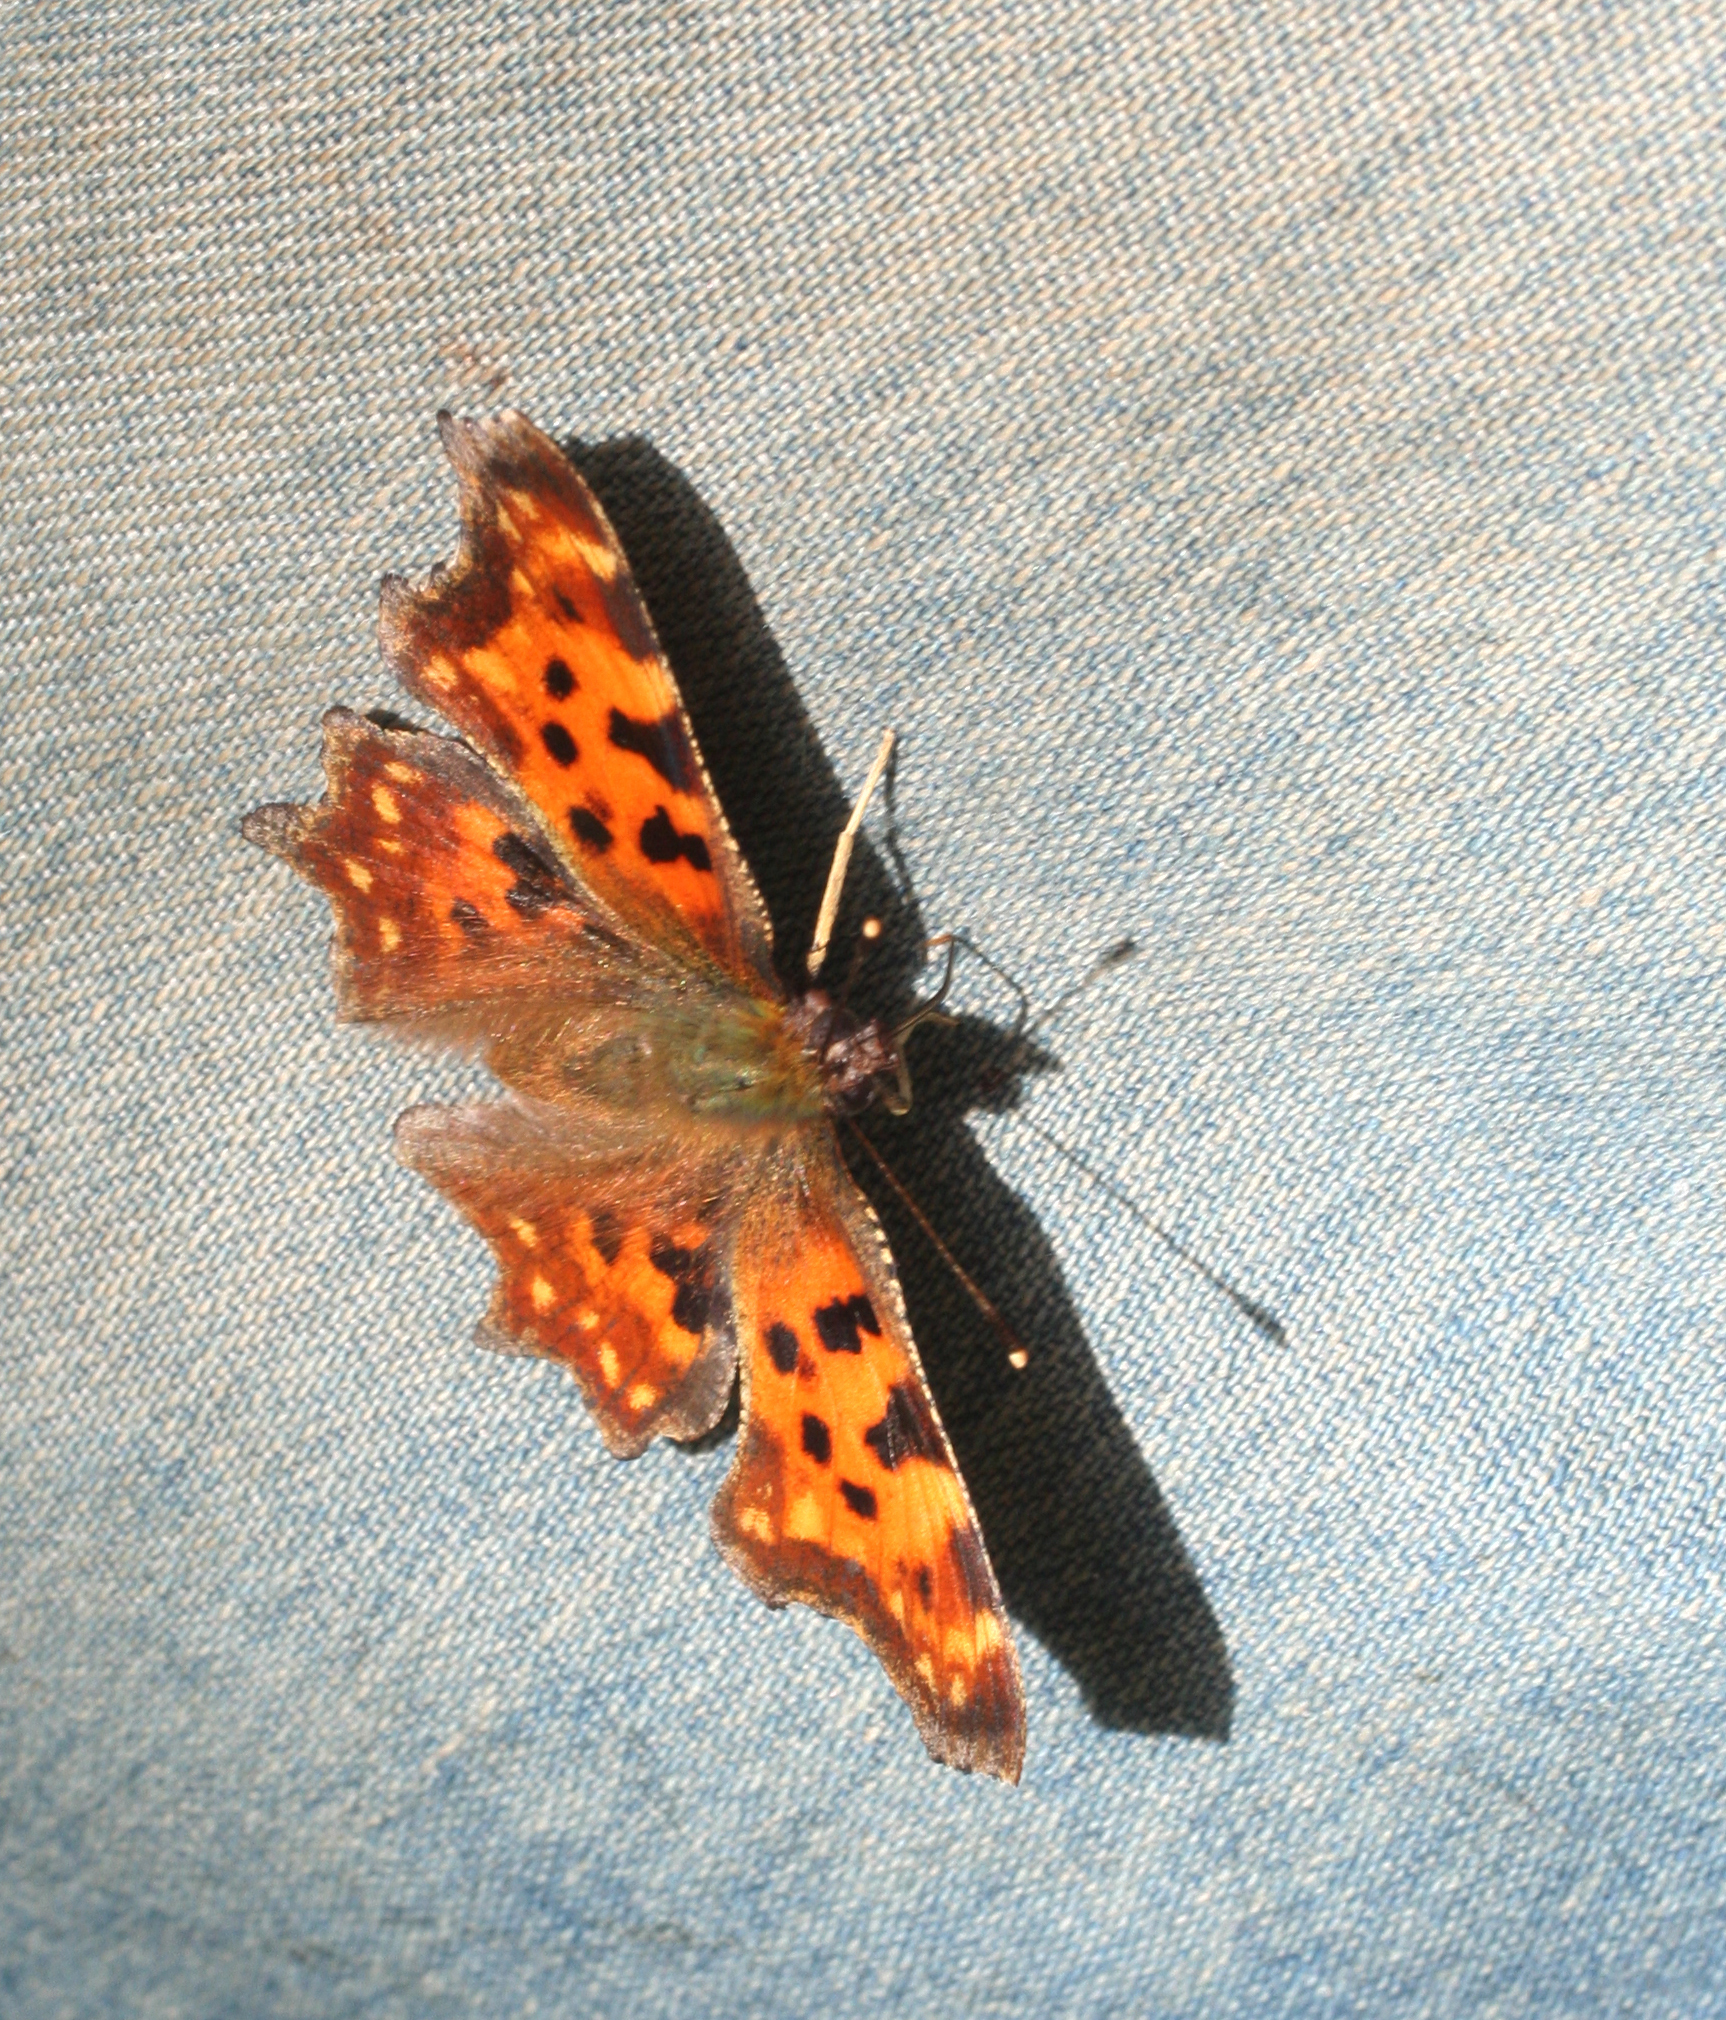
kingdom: Animalia
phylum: Arthropoda
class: Insecta
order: Lepidoptera
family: Nymphalidae
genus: Polygonia
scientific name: Polygonia c-album
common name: Comma
